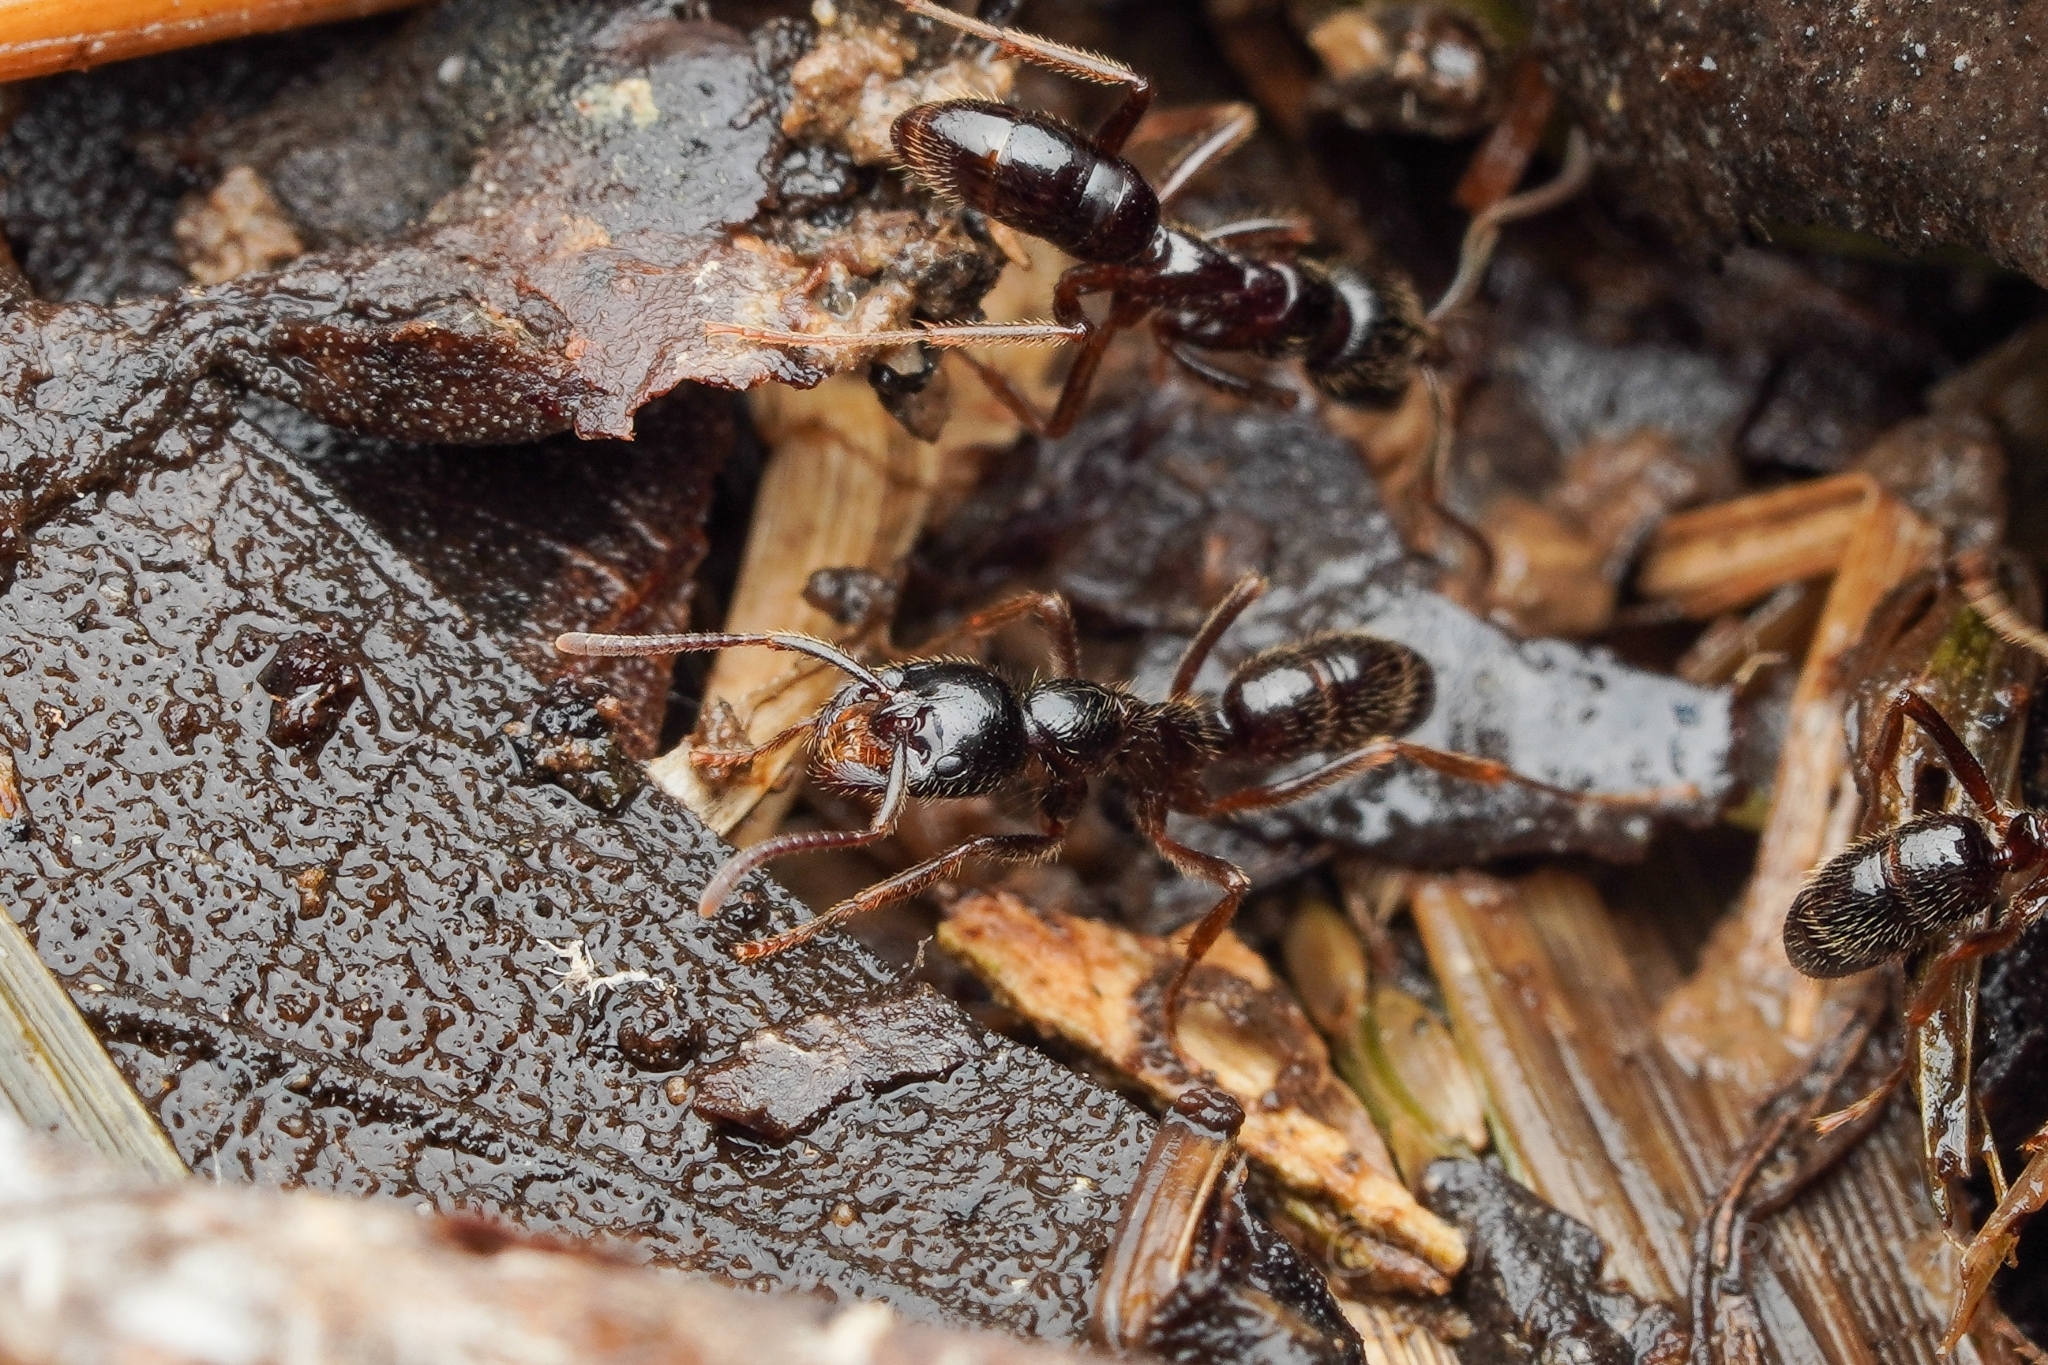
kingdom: Animalia
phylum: Arthropoda
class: Insecta
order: Hymenoptera
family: Formicidae
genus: Leptogenys
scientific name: Leptogenys processionalis
